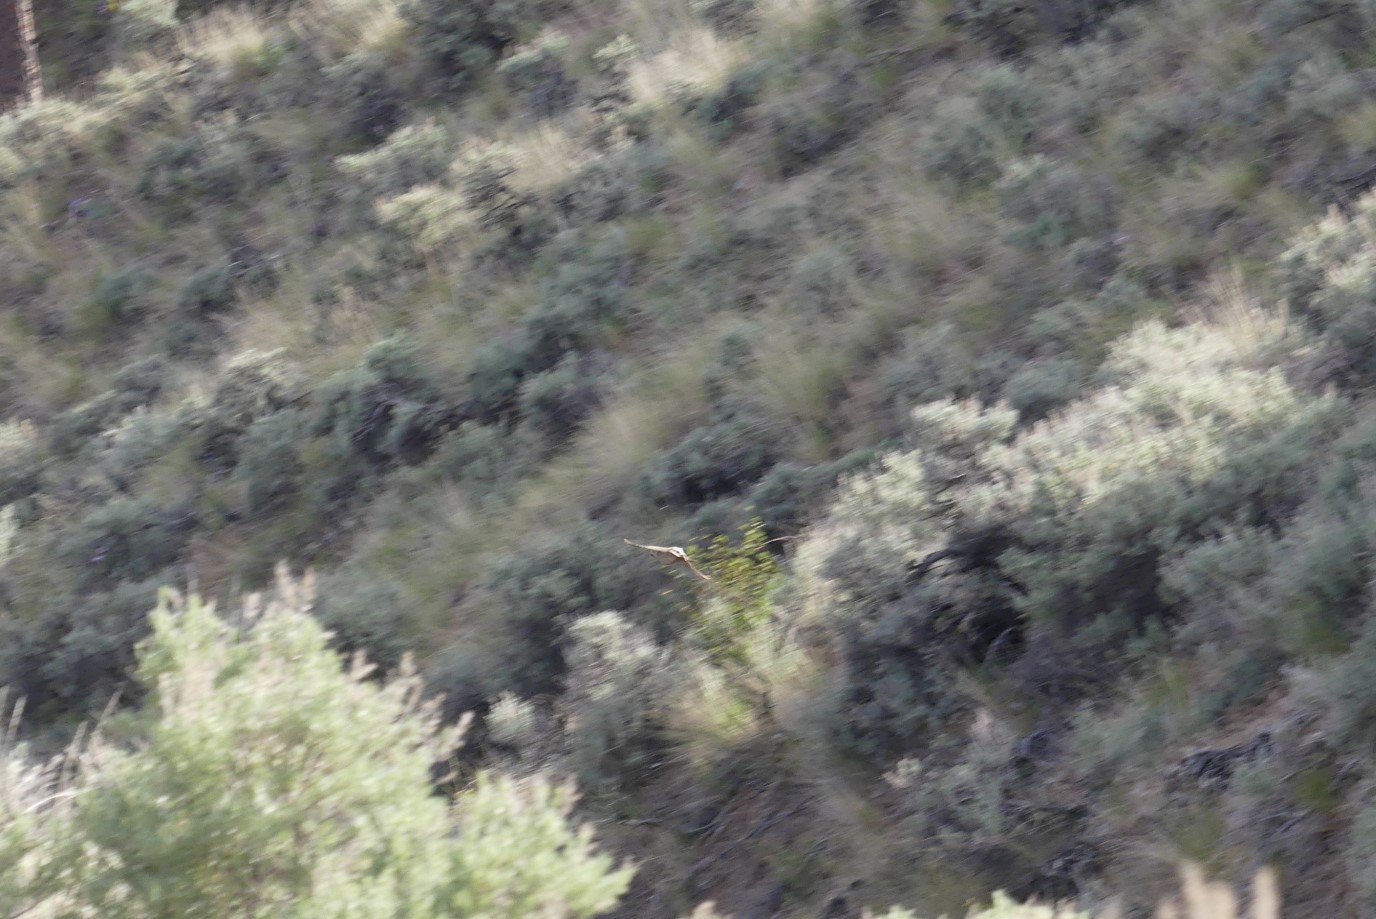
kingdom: Animalia
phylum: Chordata
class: Aves
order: Galliformes
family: Phasianidae
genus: Alectoris
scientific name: Alectoris chukar
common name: Chukar
